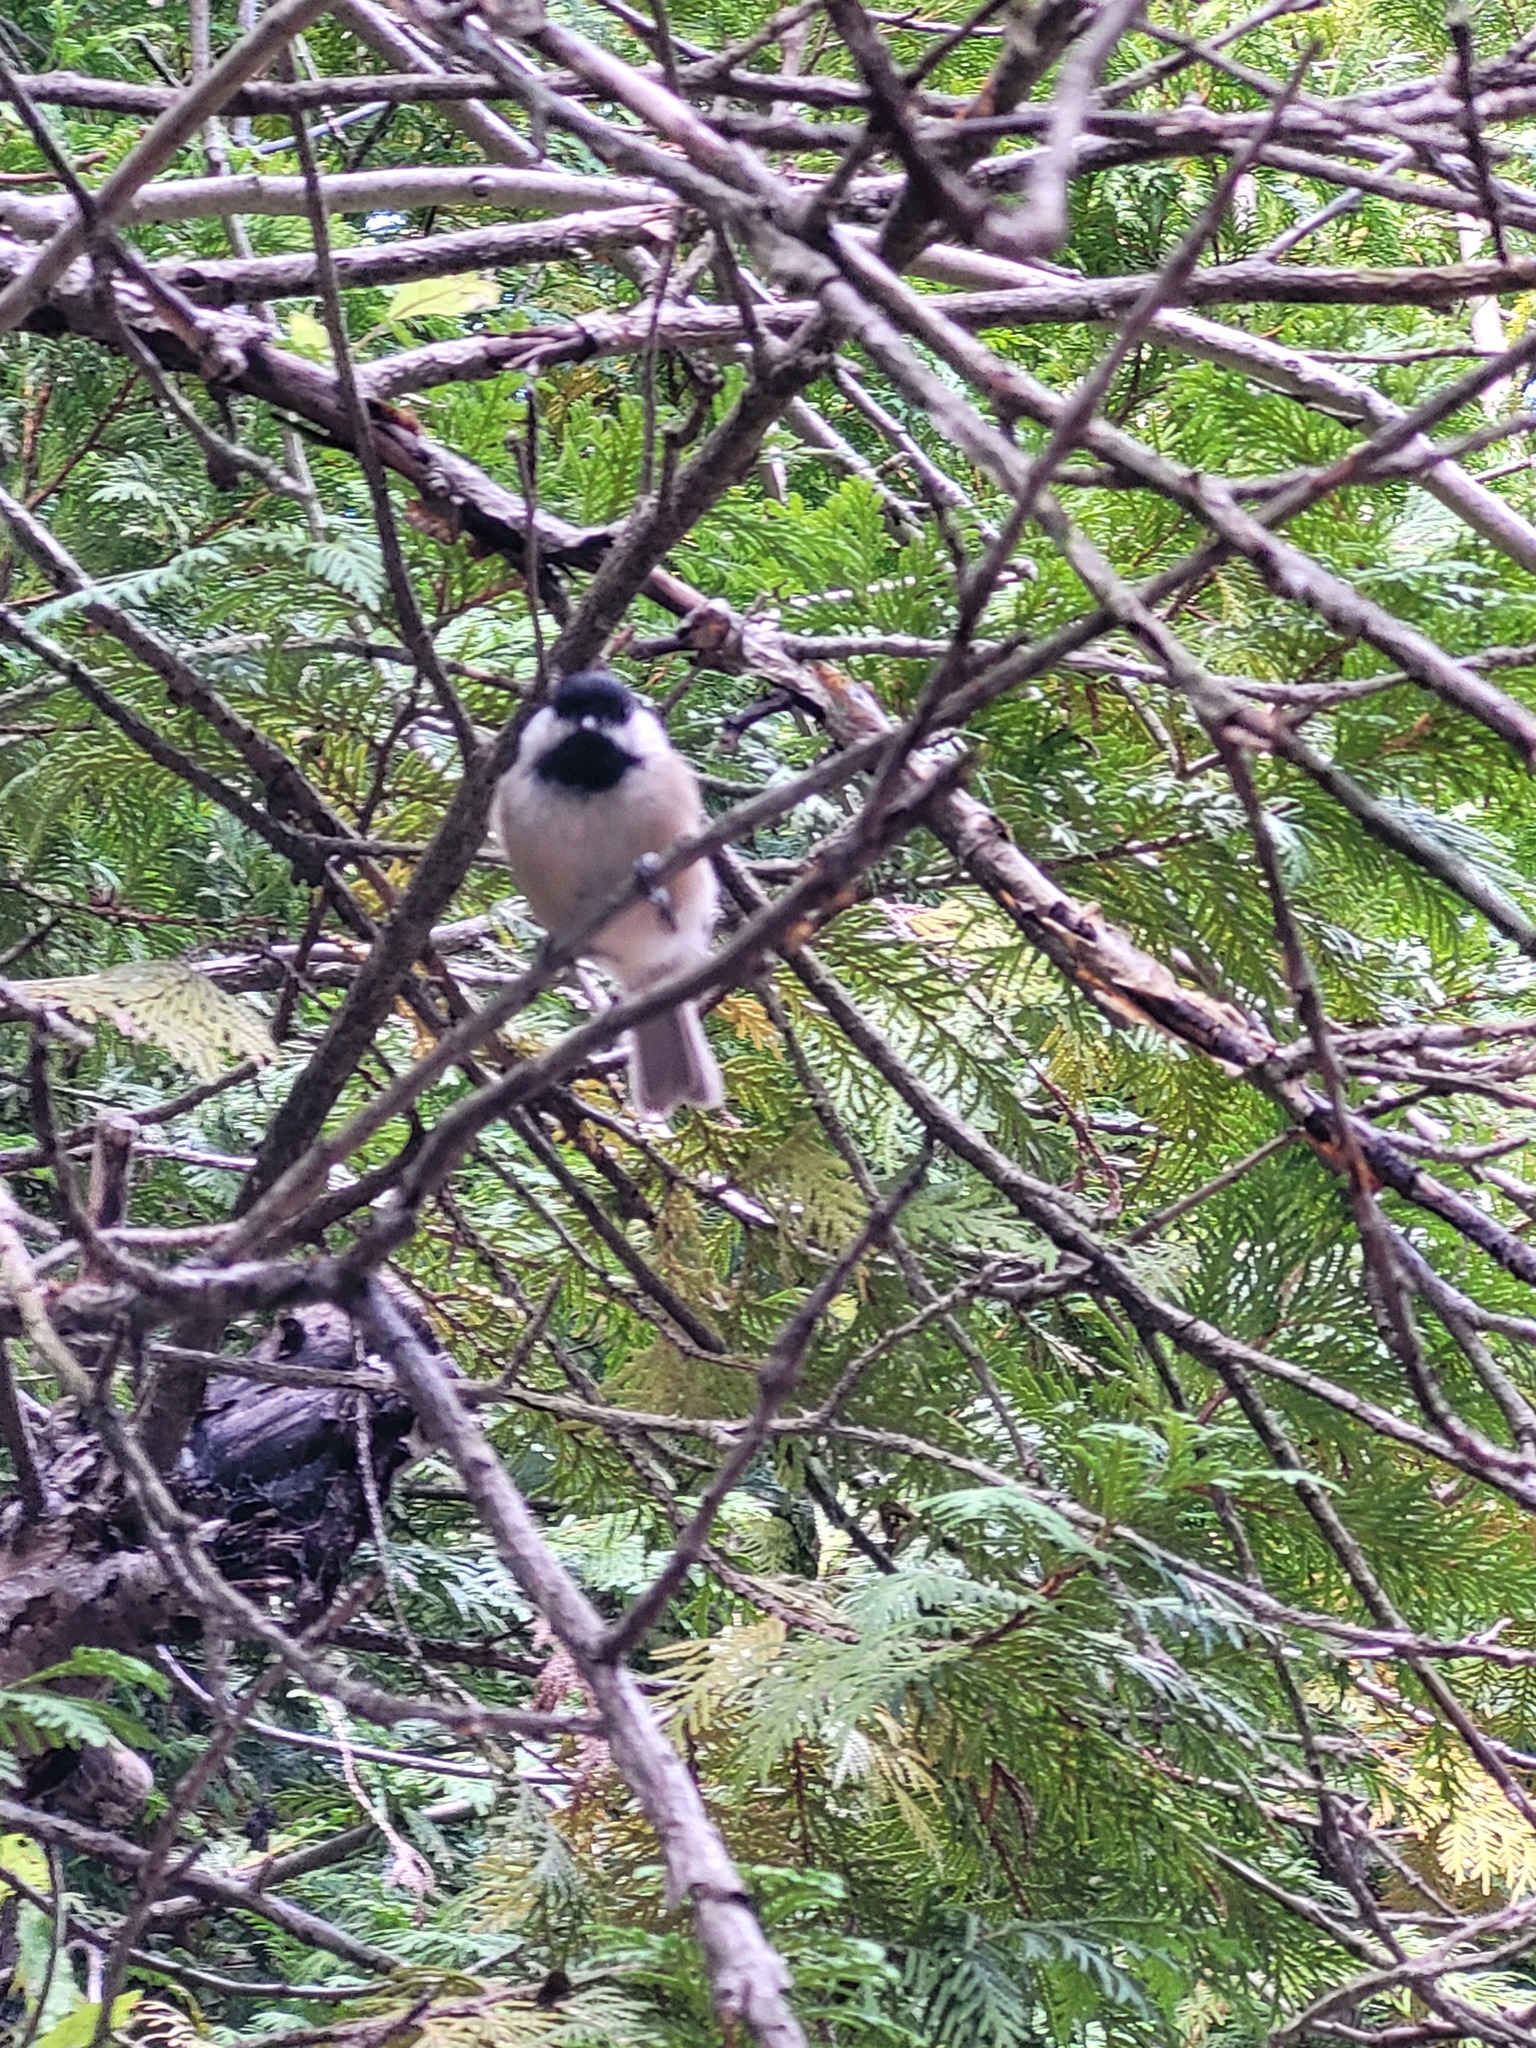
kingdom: Animalia
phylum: Chordata
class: Aves
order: Passeriformes
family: Paridae
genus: Poecile
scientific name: Poecile atricapillus
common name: Black-capped chickadee
